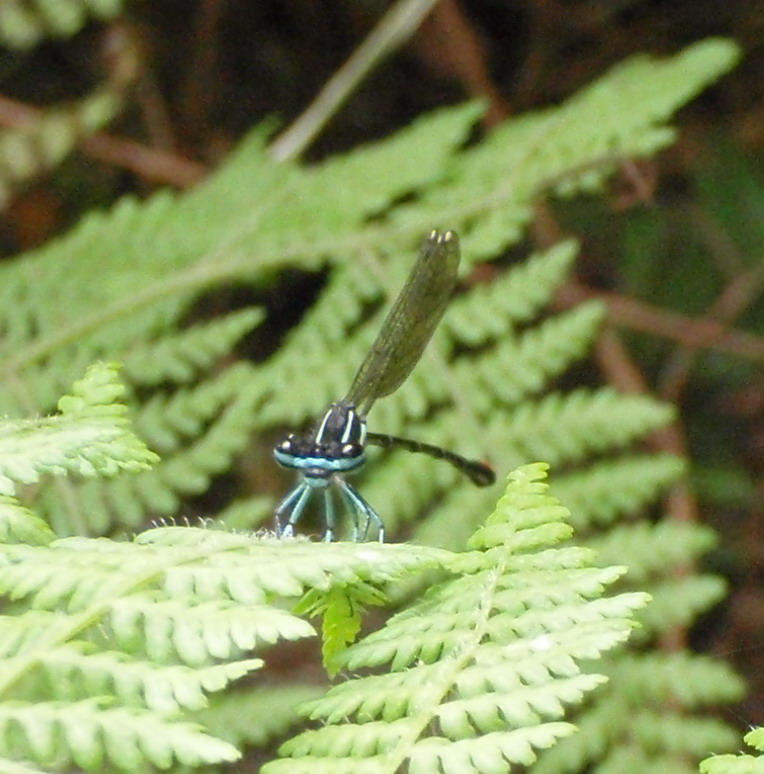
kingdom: Animalia
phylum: Arthropoda
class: Insecta
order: Odonata
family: Platycnemididae
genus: Allocnemis
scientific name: Allocnemis leucosticta
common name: Goldtail
